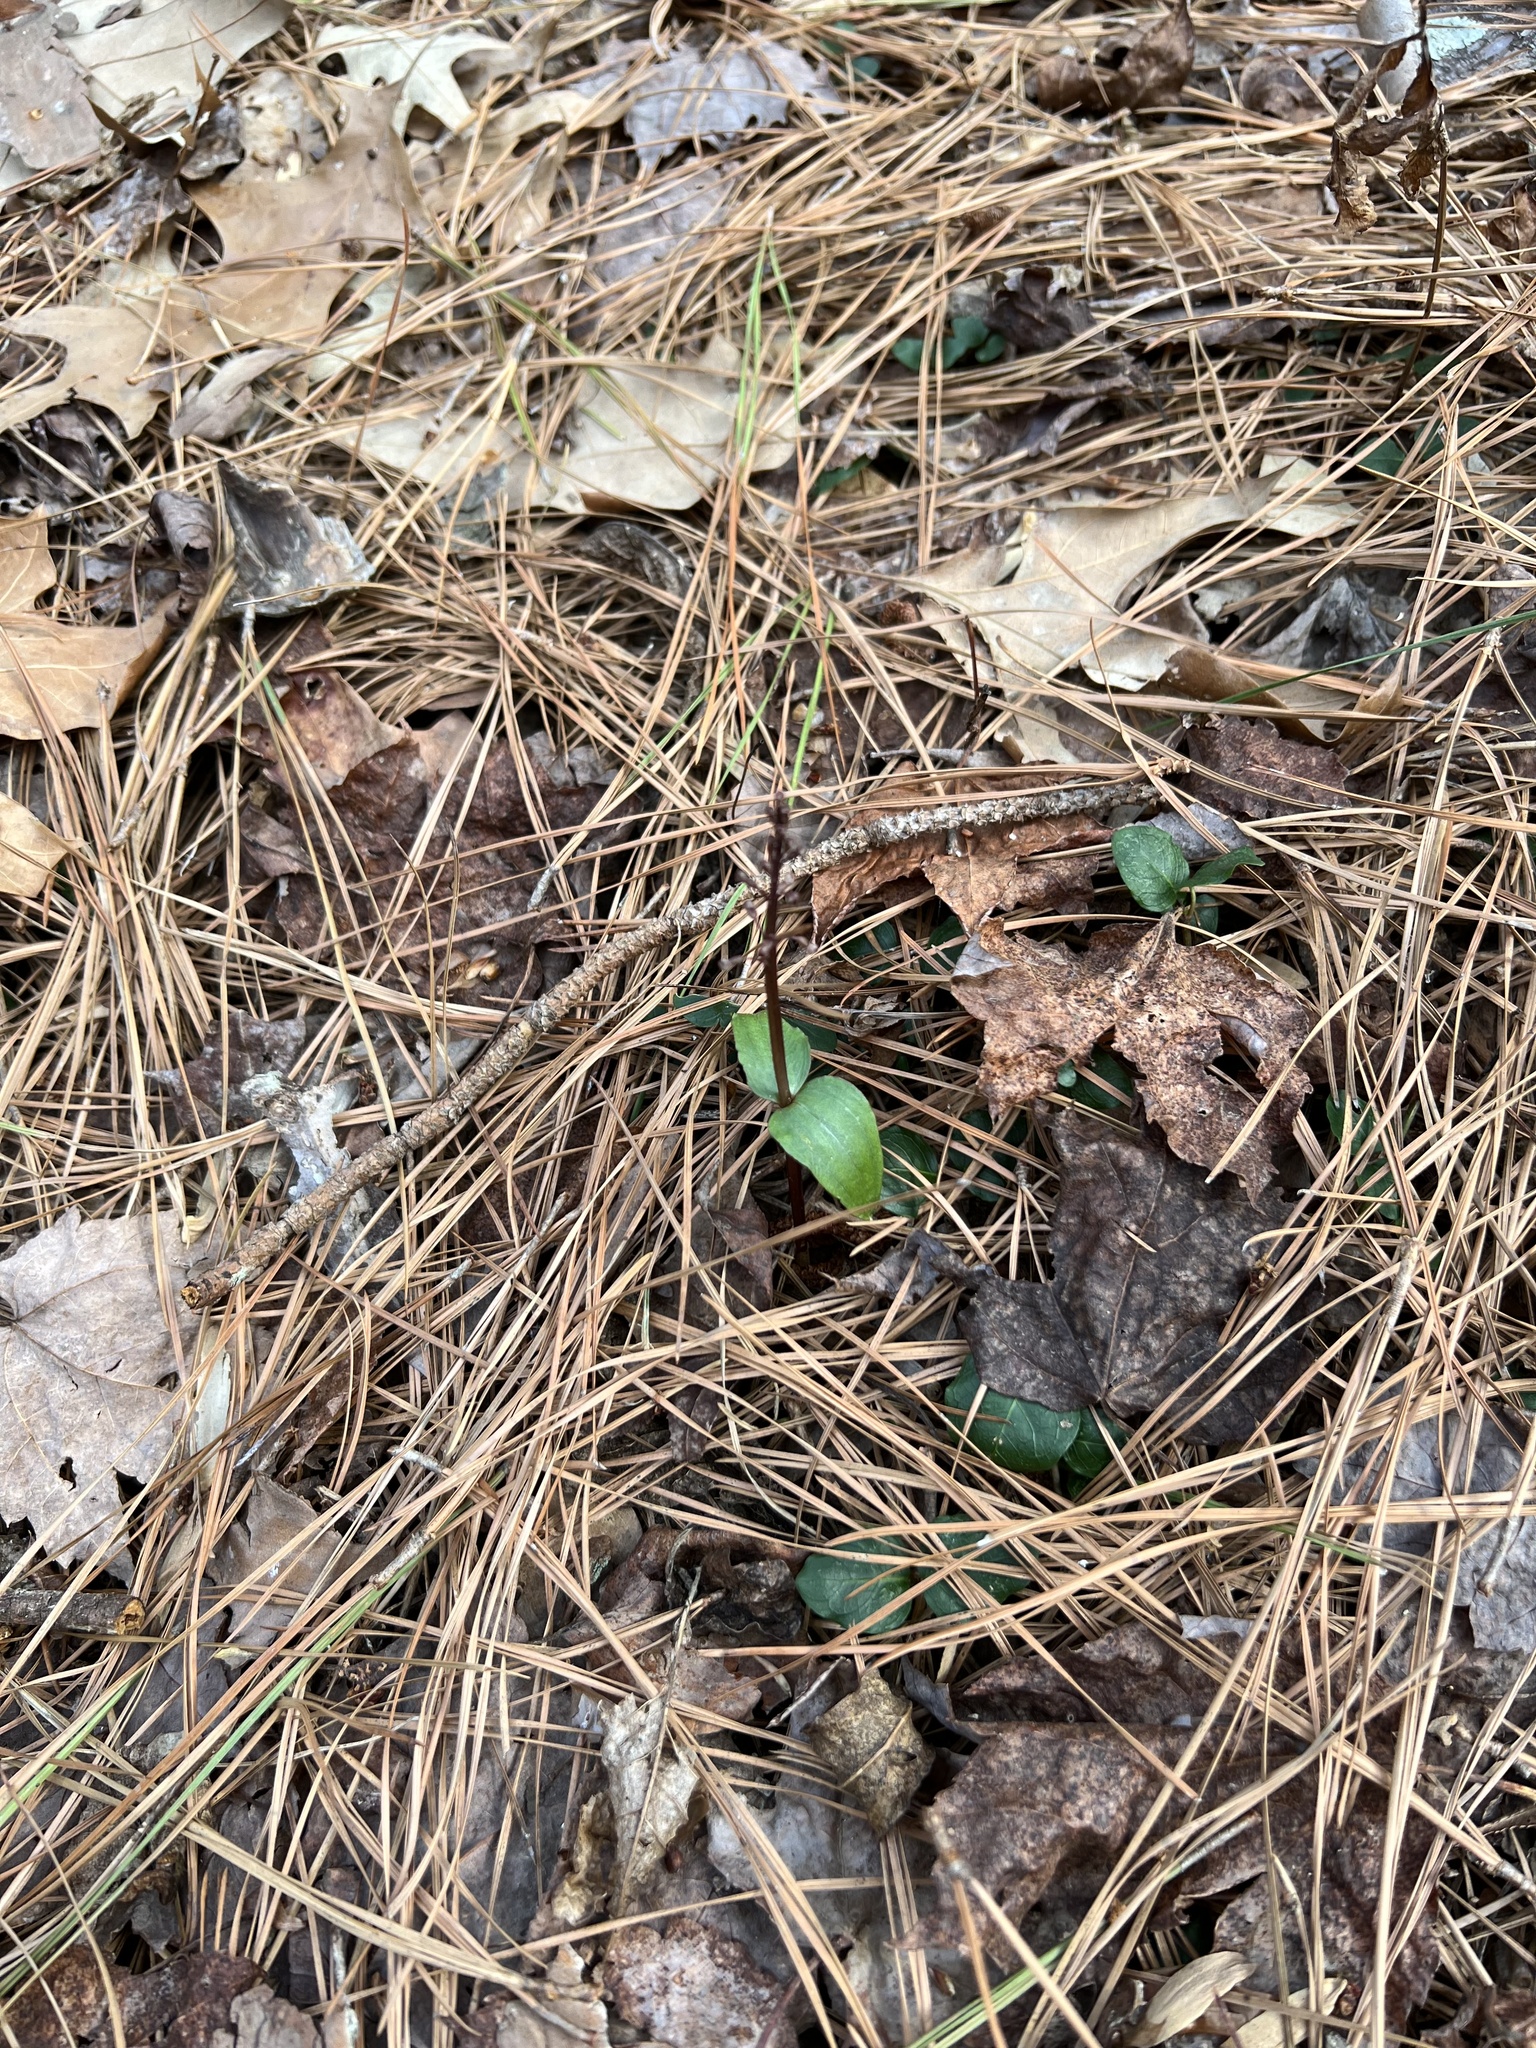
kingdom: Plantae
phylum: Tracheophyta
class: Liliopsida
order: Asparagales
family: Orchidaceae
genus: Neottia
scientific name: Neottia bifolia
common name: Southern twayblade
